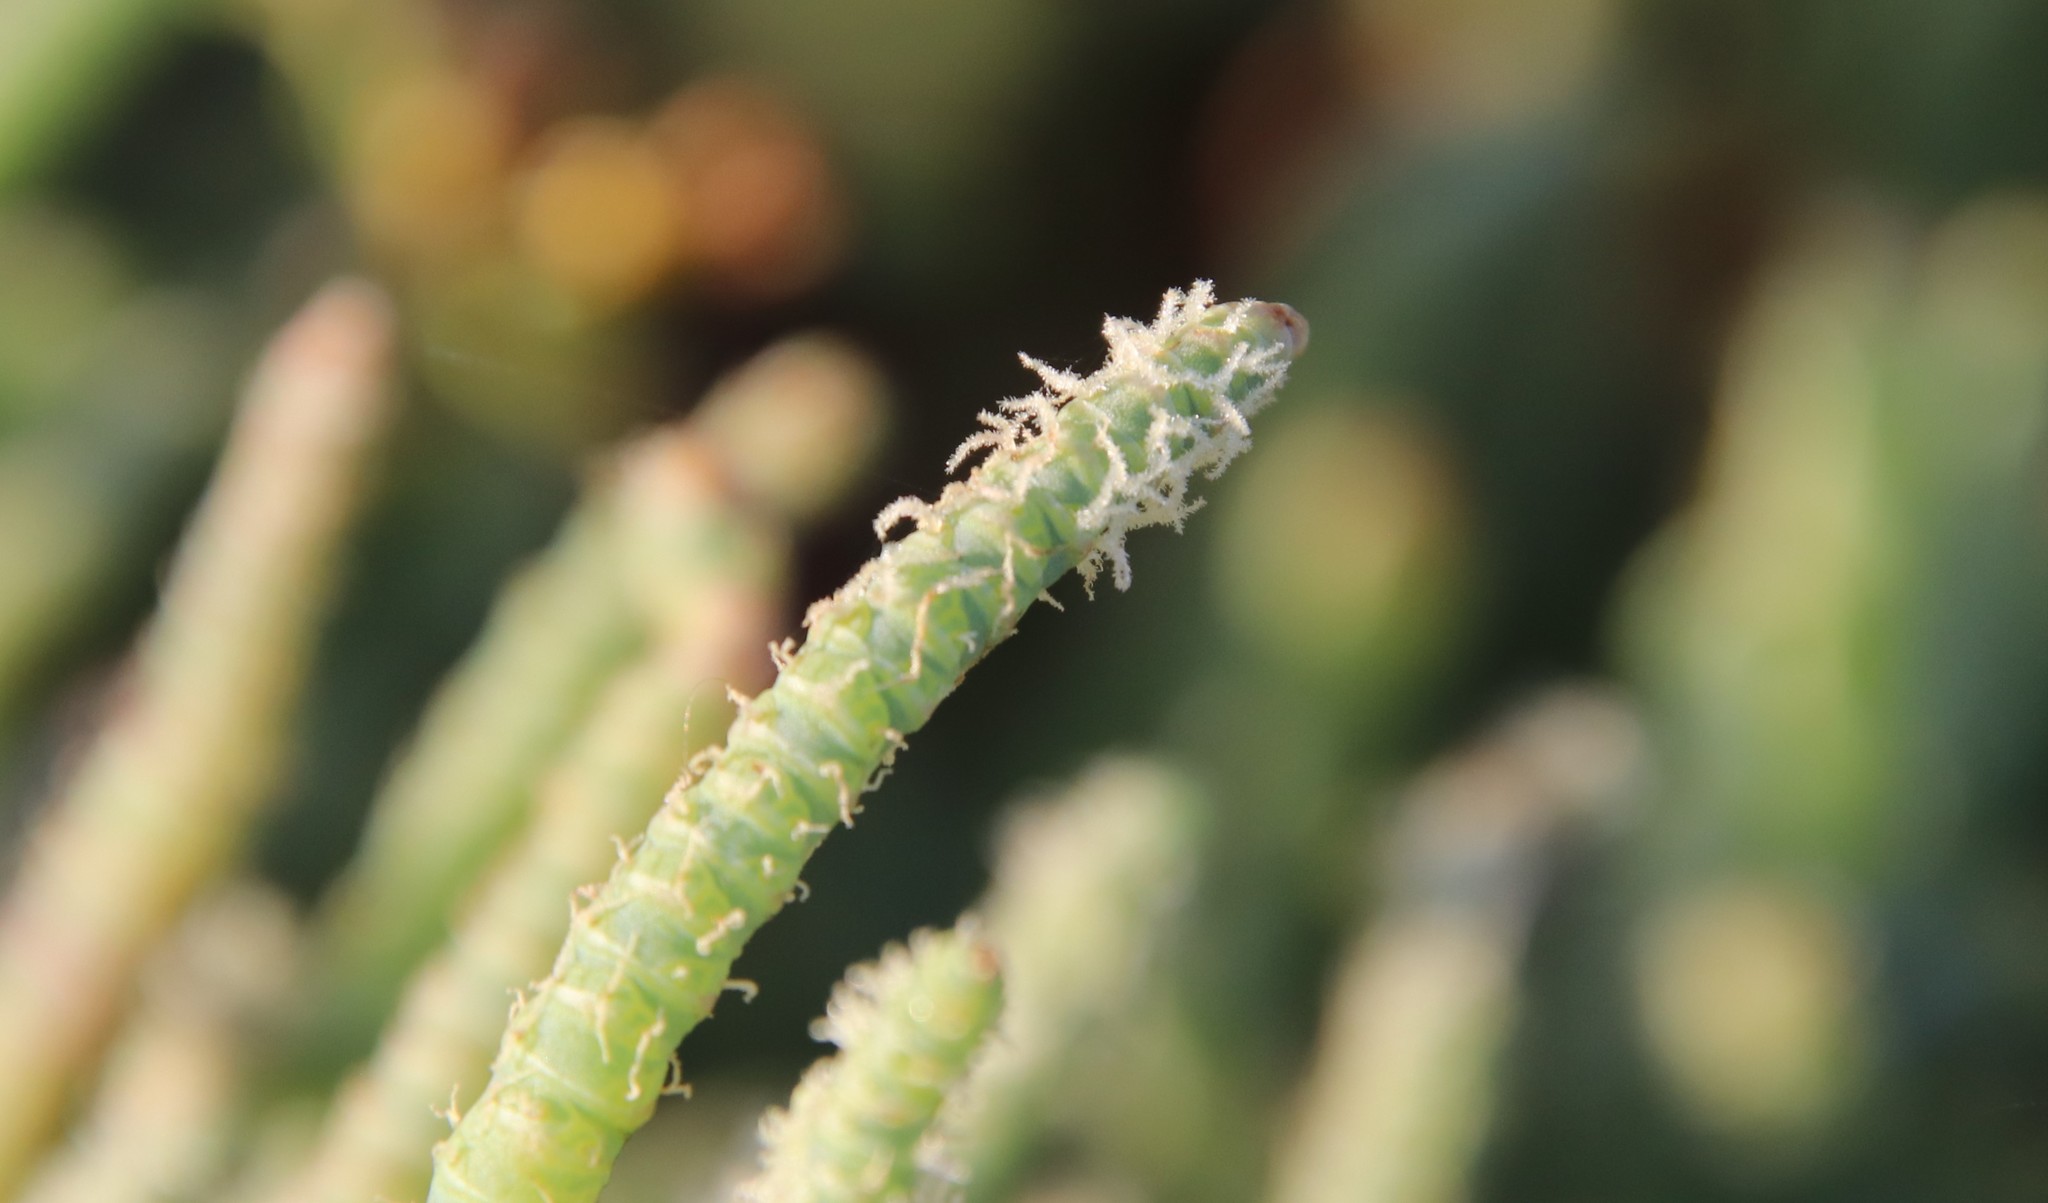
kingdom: Plantae
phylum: Tracheophyta
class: Magnoliopsida
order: Caryophyllales
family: Amaranthaceae
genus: Salicornia
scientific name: Salicornia pacifica
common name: Pacific glasswort
